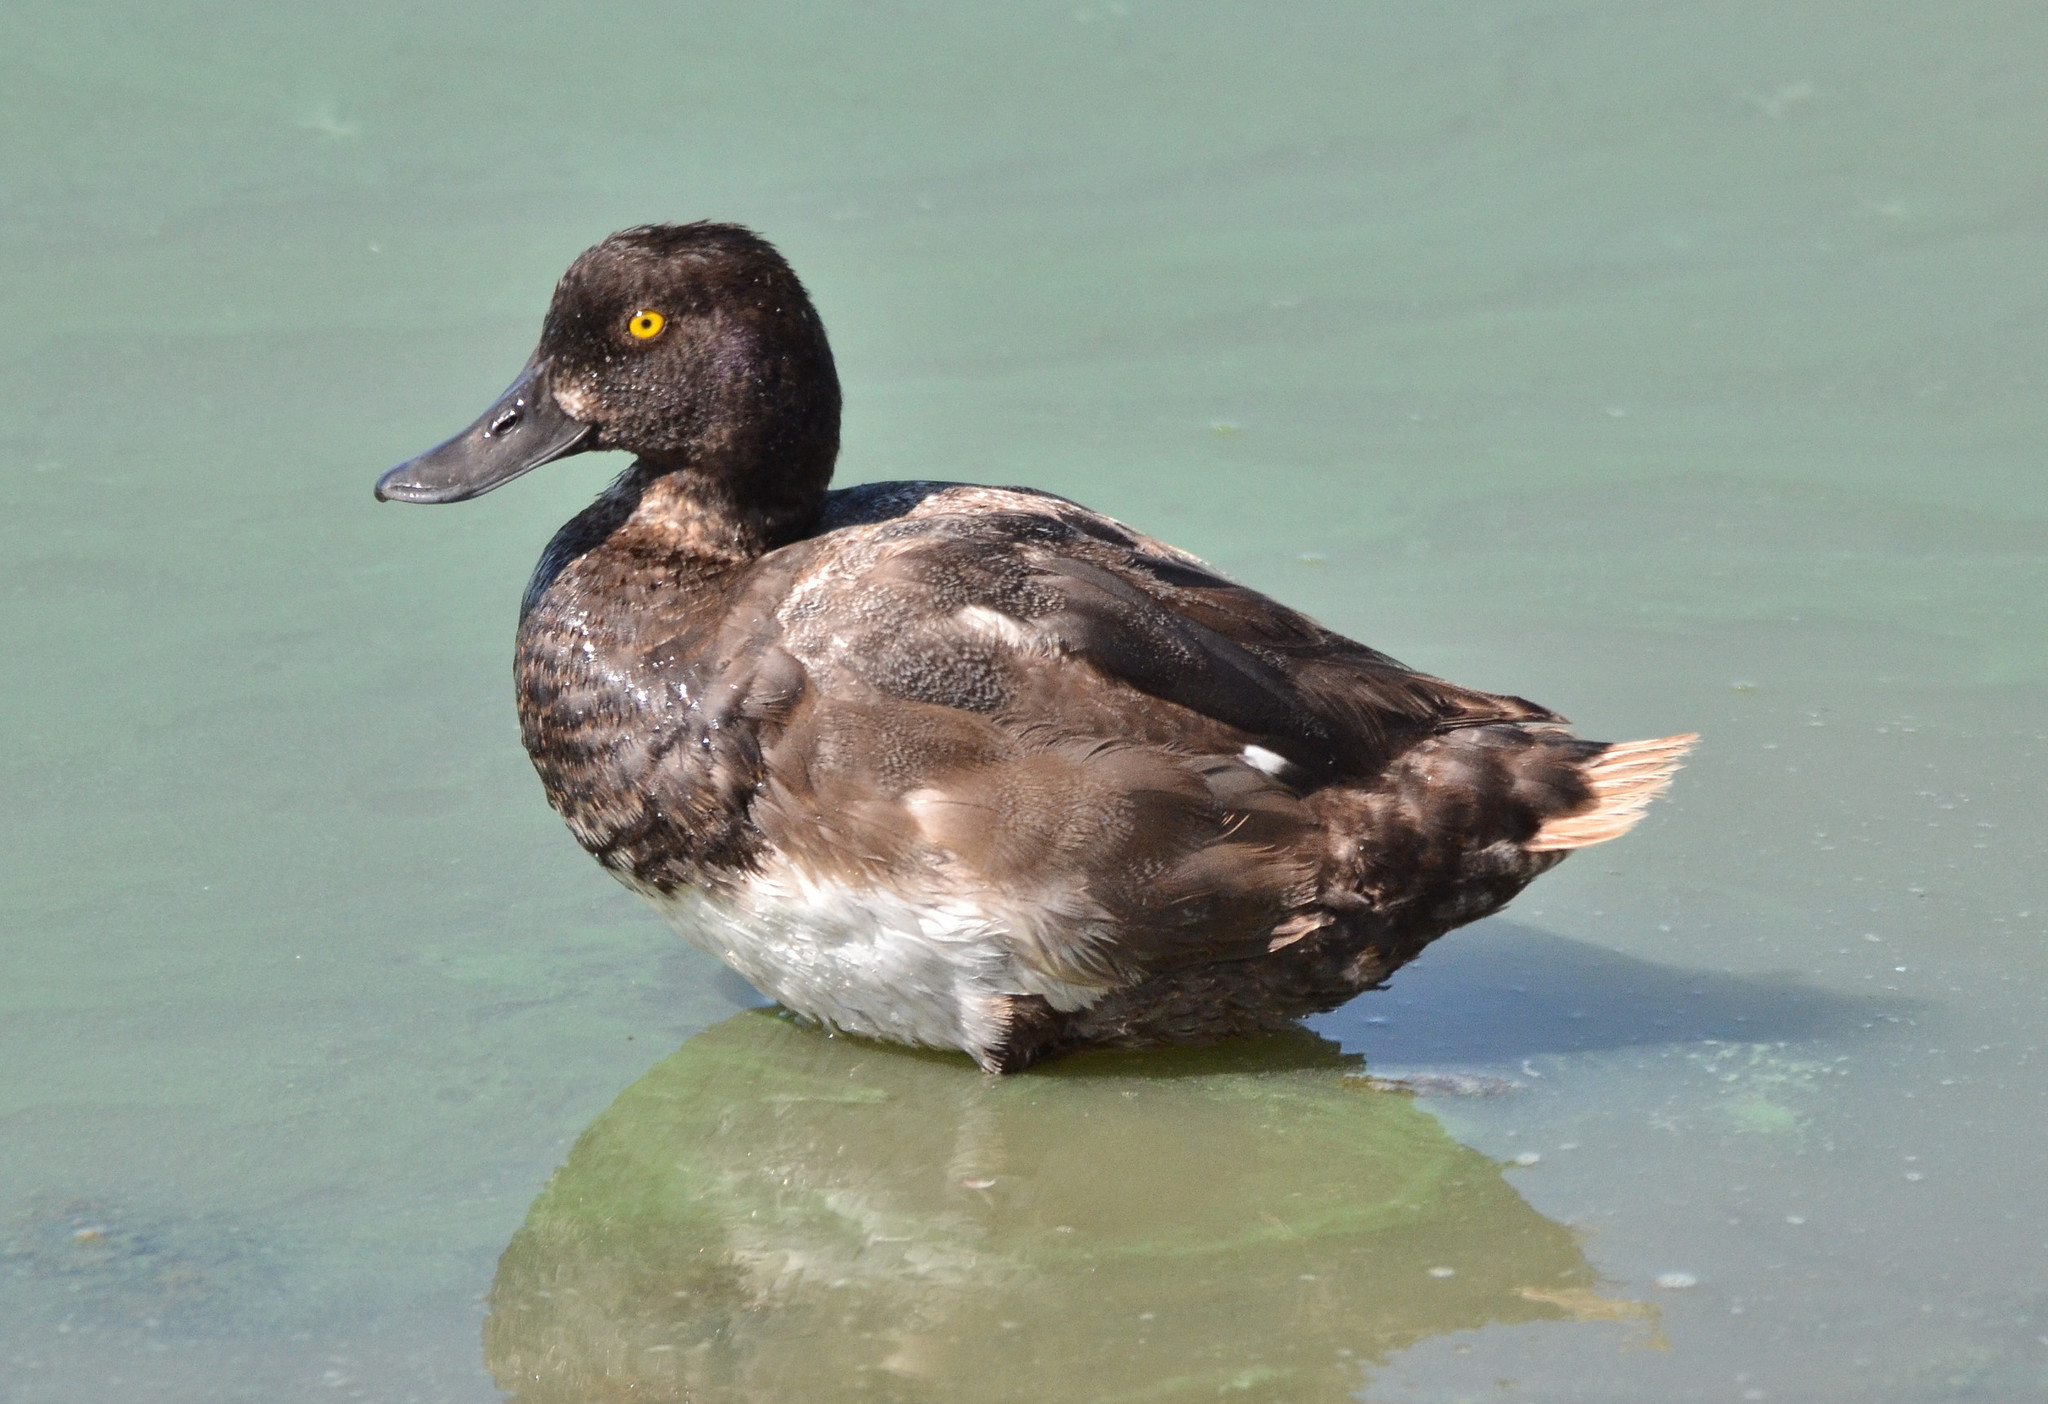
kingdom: Animalia
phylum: Chordata
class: Aves
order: Anseriformes
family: Anatidae
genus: Aythya
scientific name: Aythya marila
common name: Greater scaup
